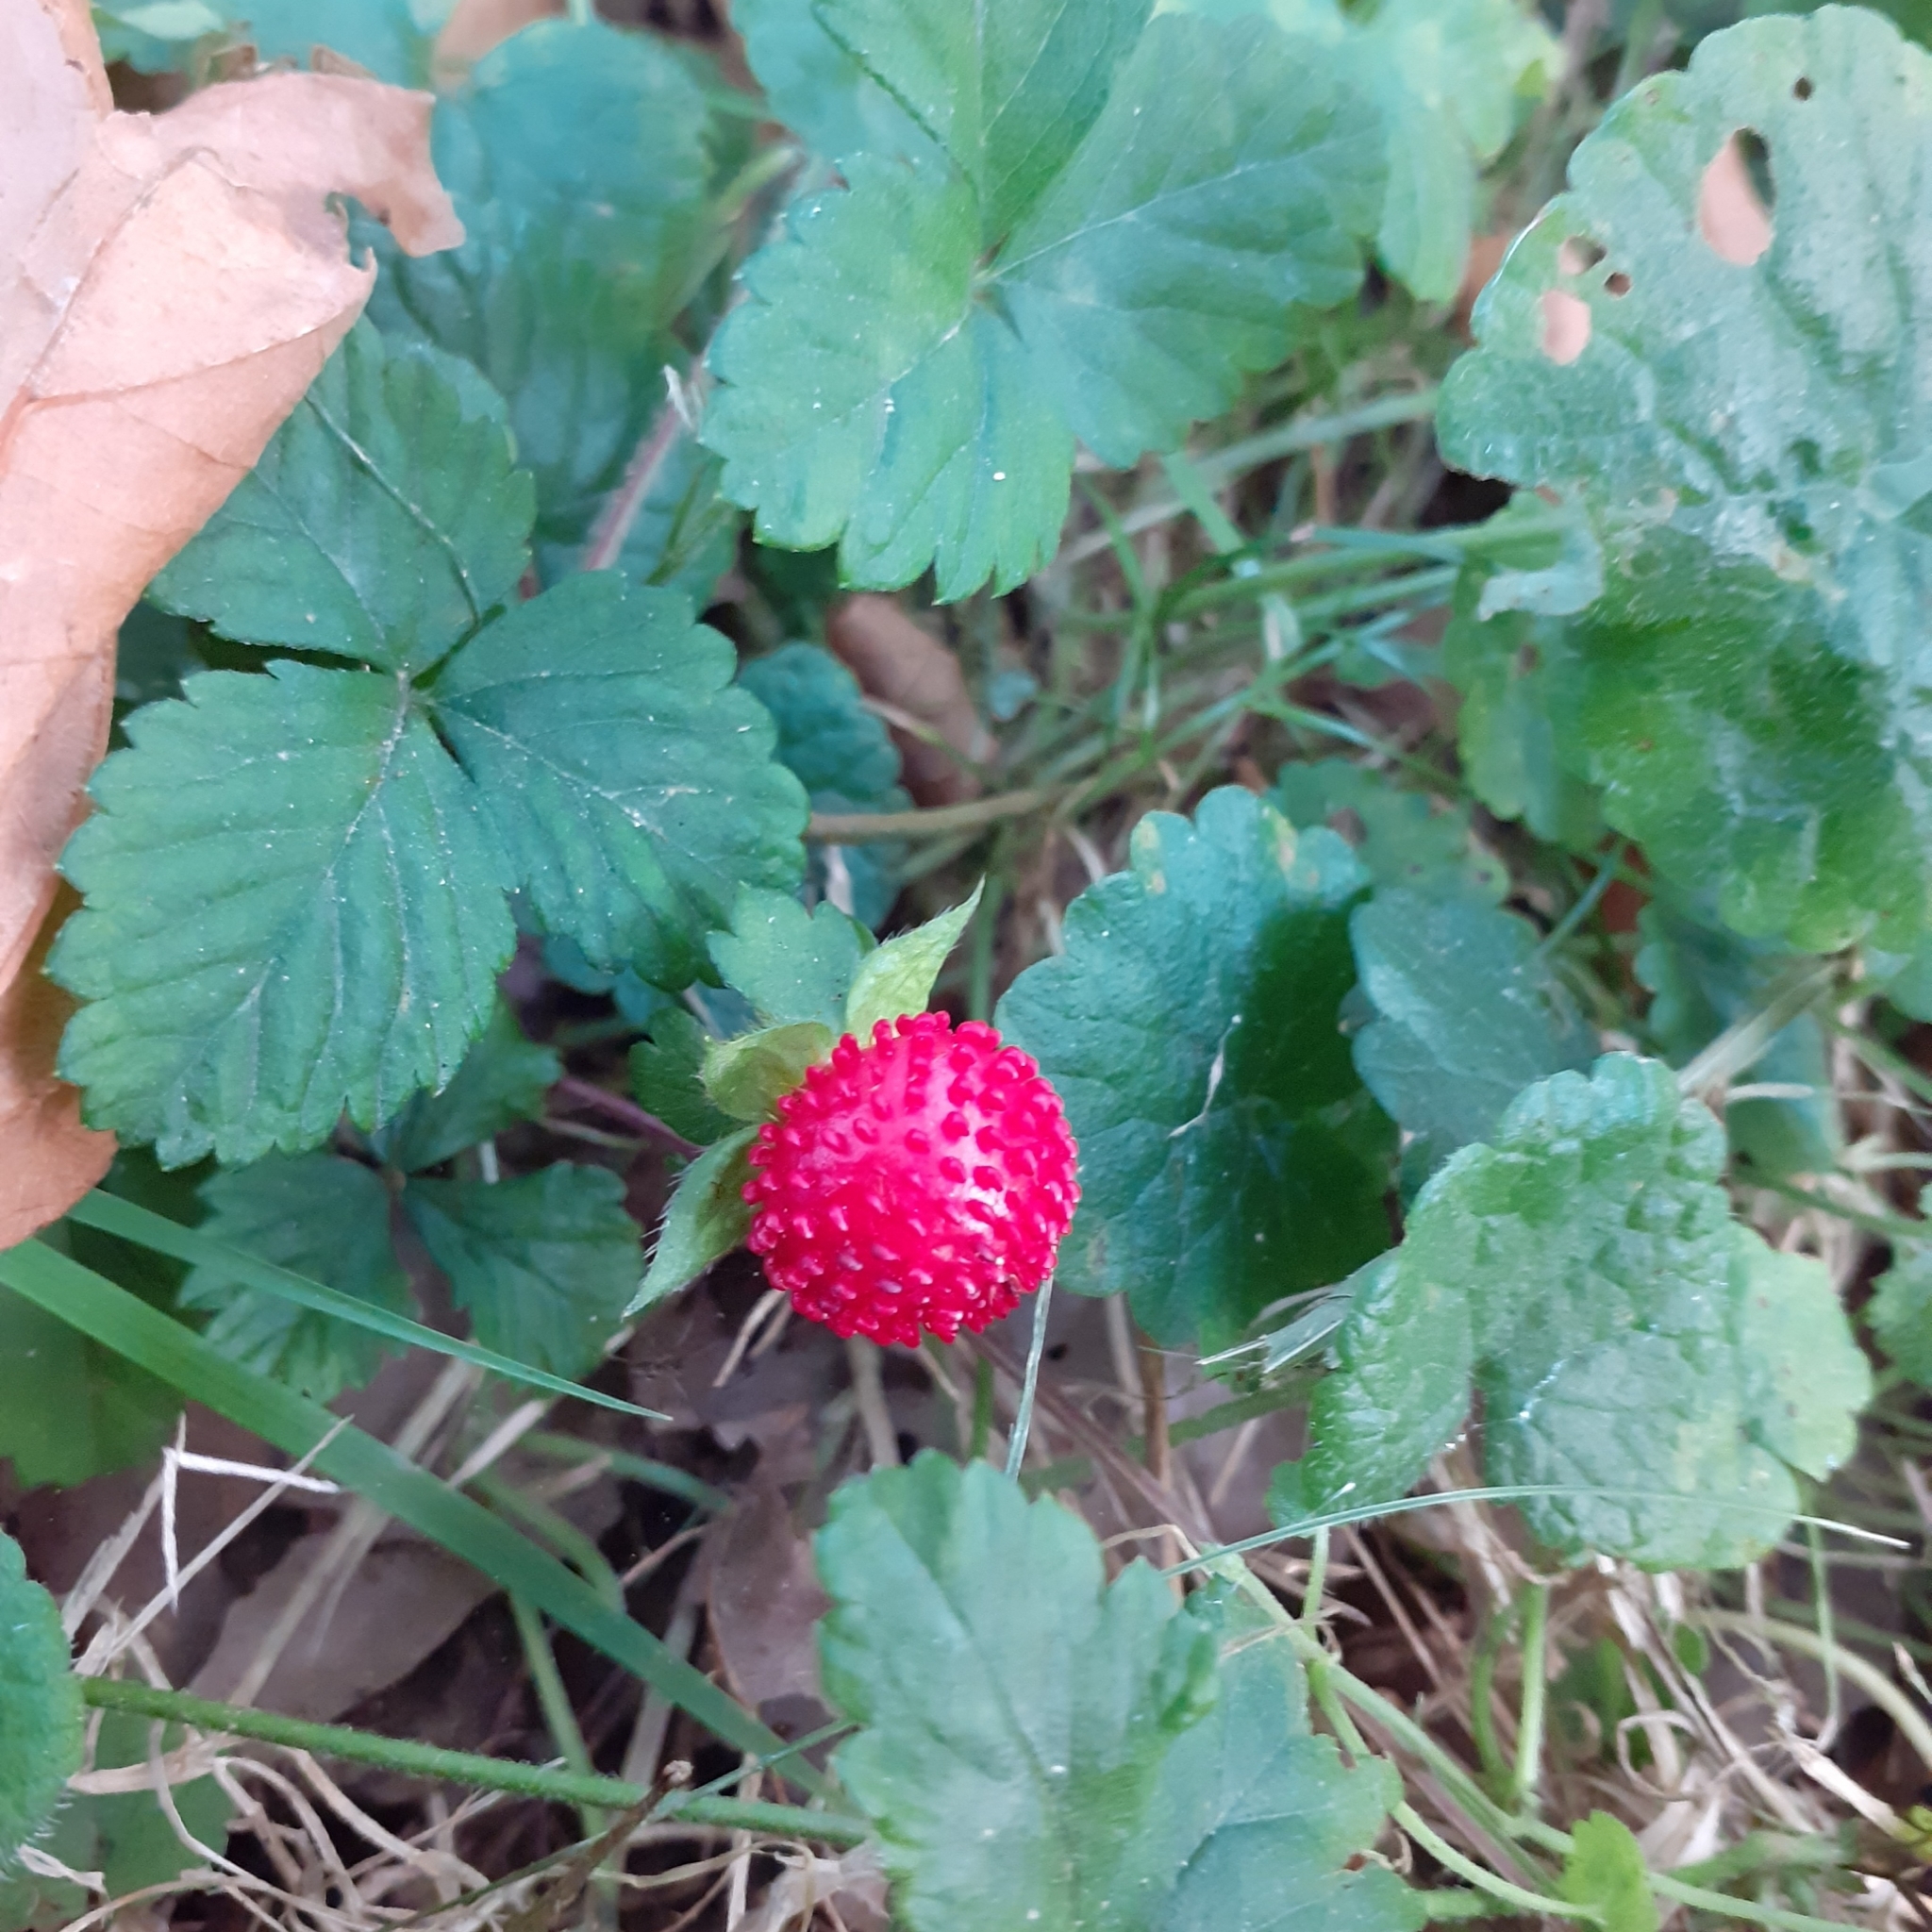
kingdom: Plantae
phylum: Tracheophyta
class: Magnoliopsida
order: Rosales
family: Rosaceae
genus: Potentilla
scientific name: Potentilla indica
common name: Yellow-flowered strawberry
